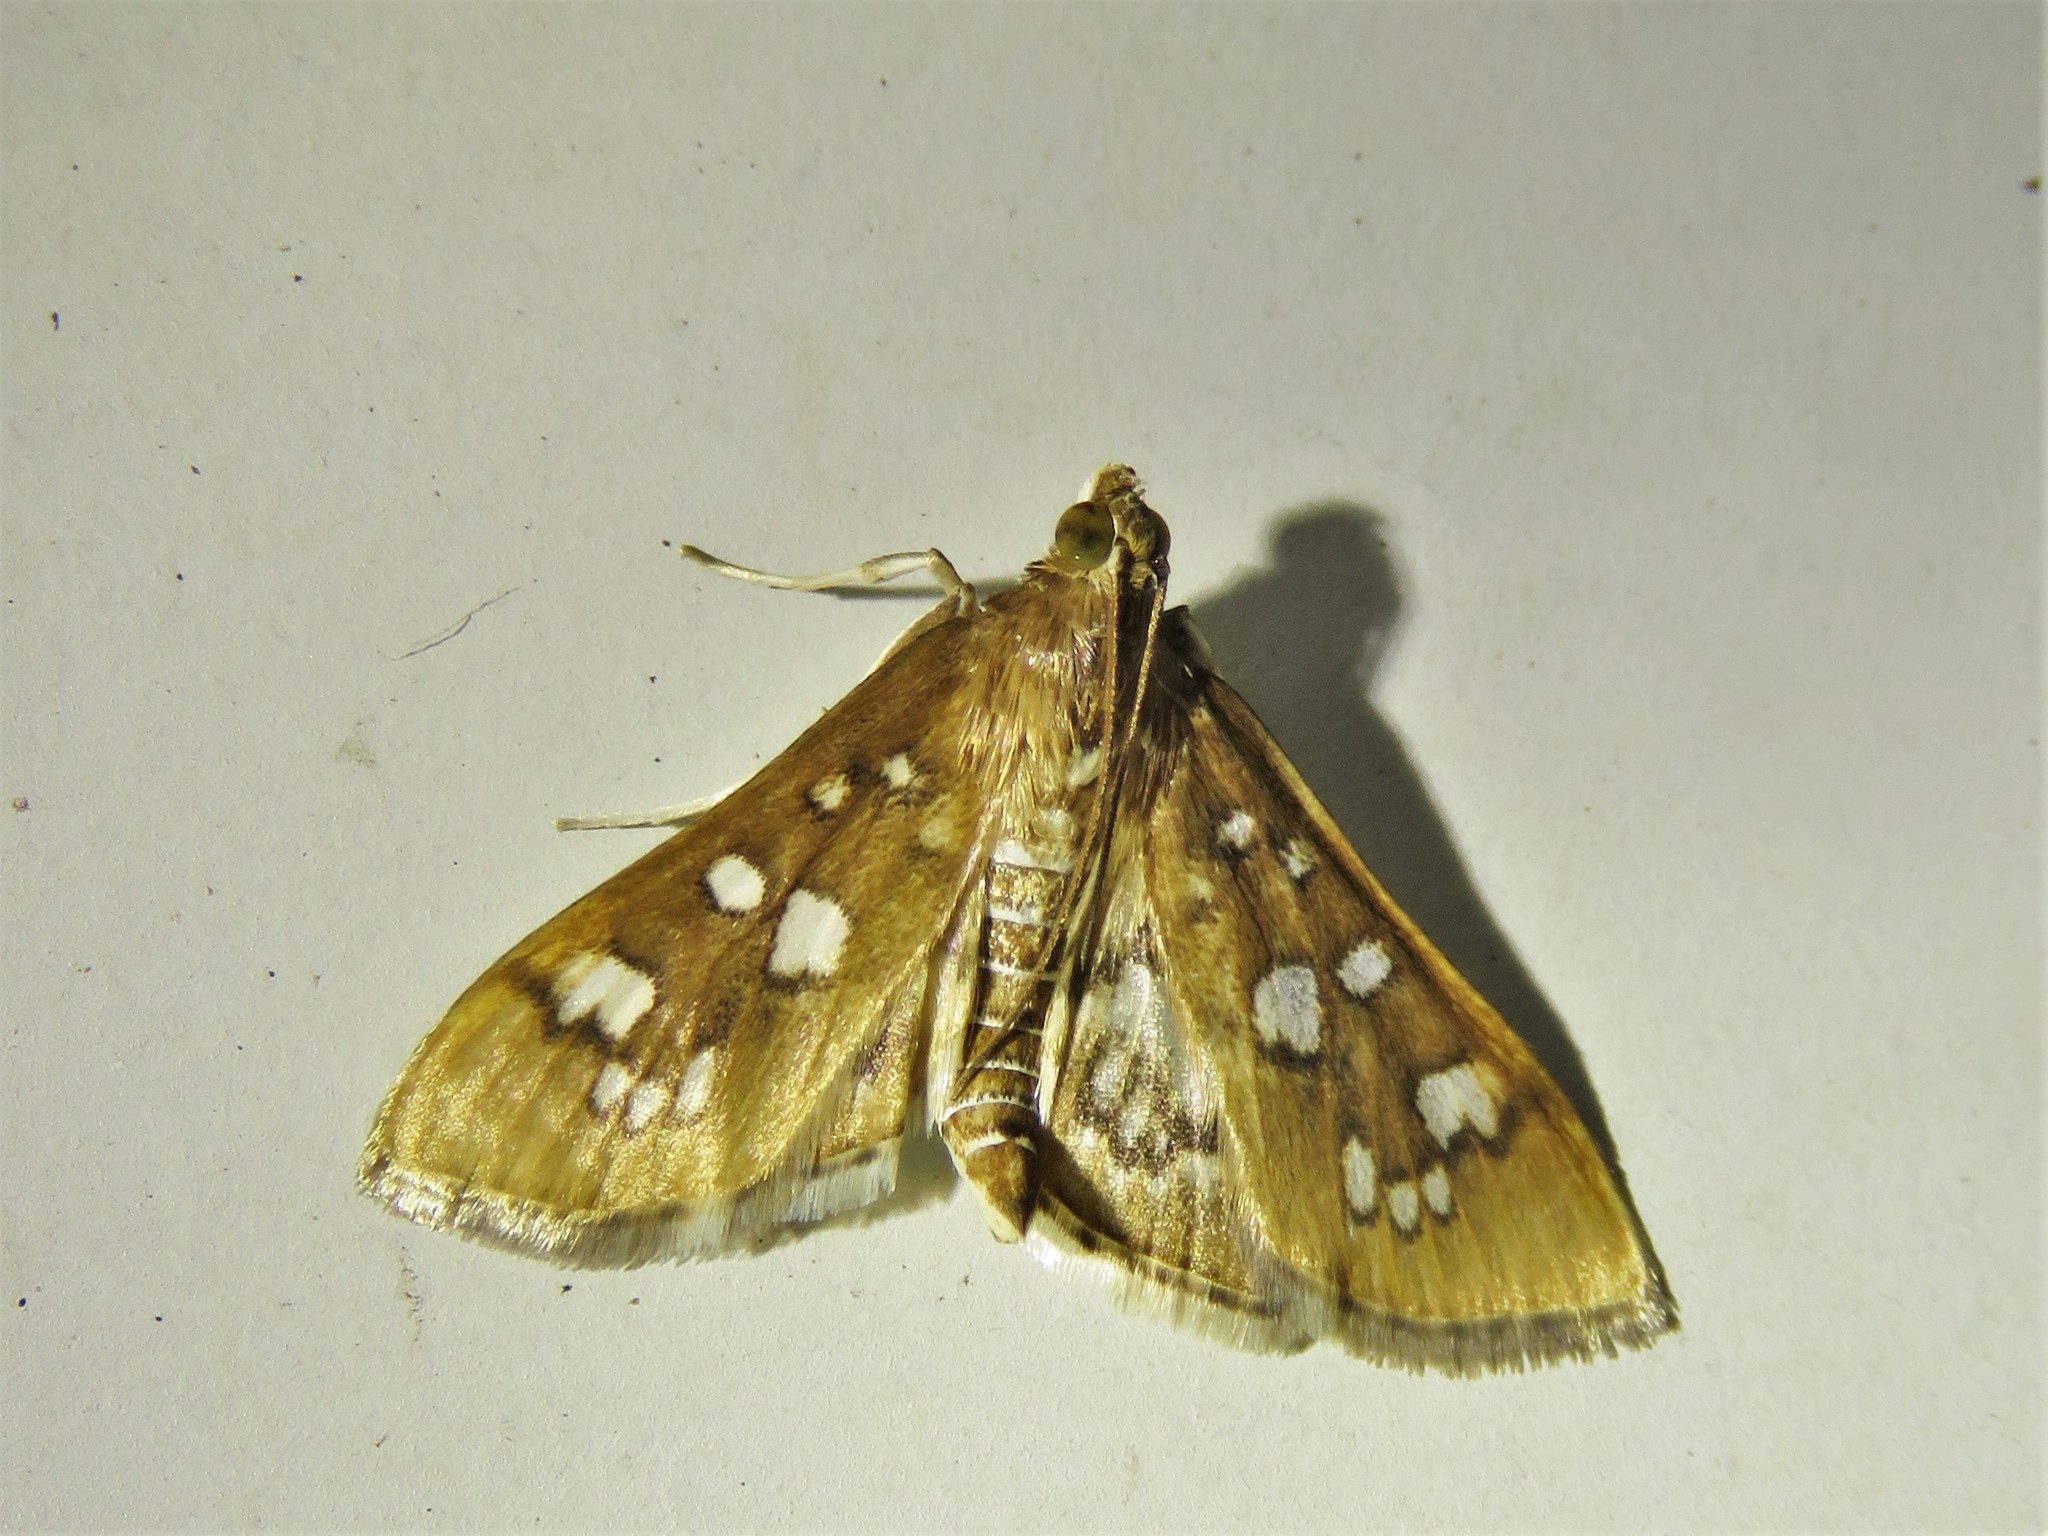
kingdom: Animalia
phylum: Arthropoda
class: Insecta
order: Lepidoptera
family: Crambidae
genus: Samea
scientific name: Samea baccatalis
